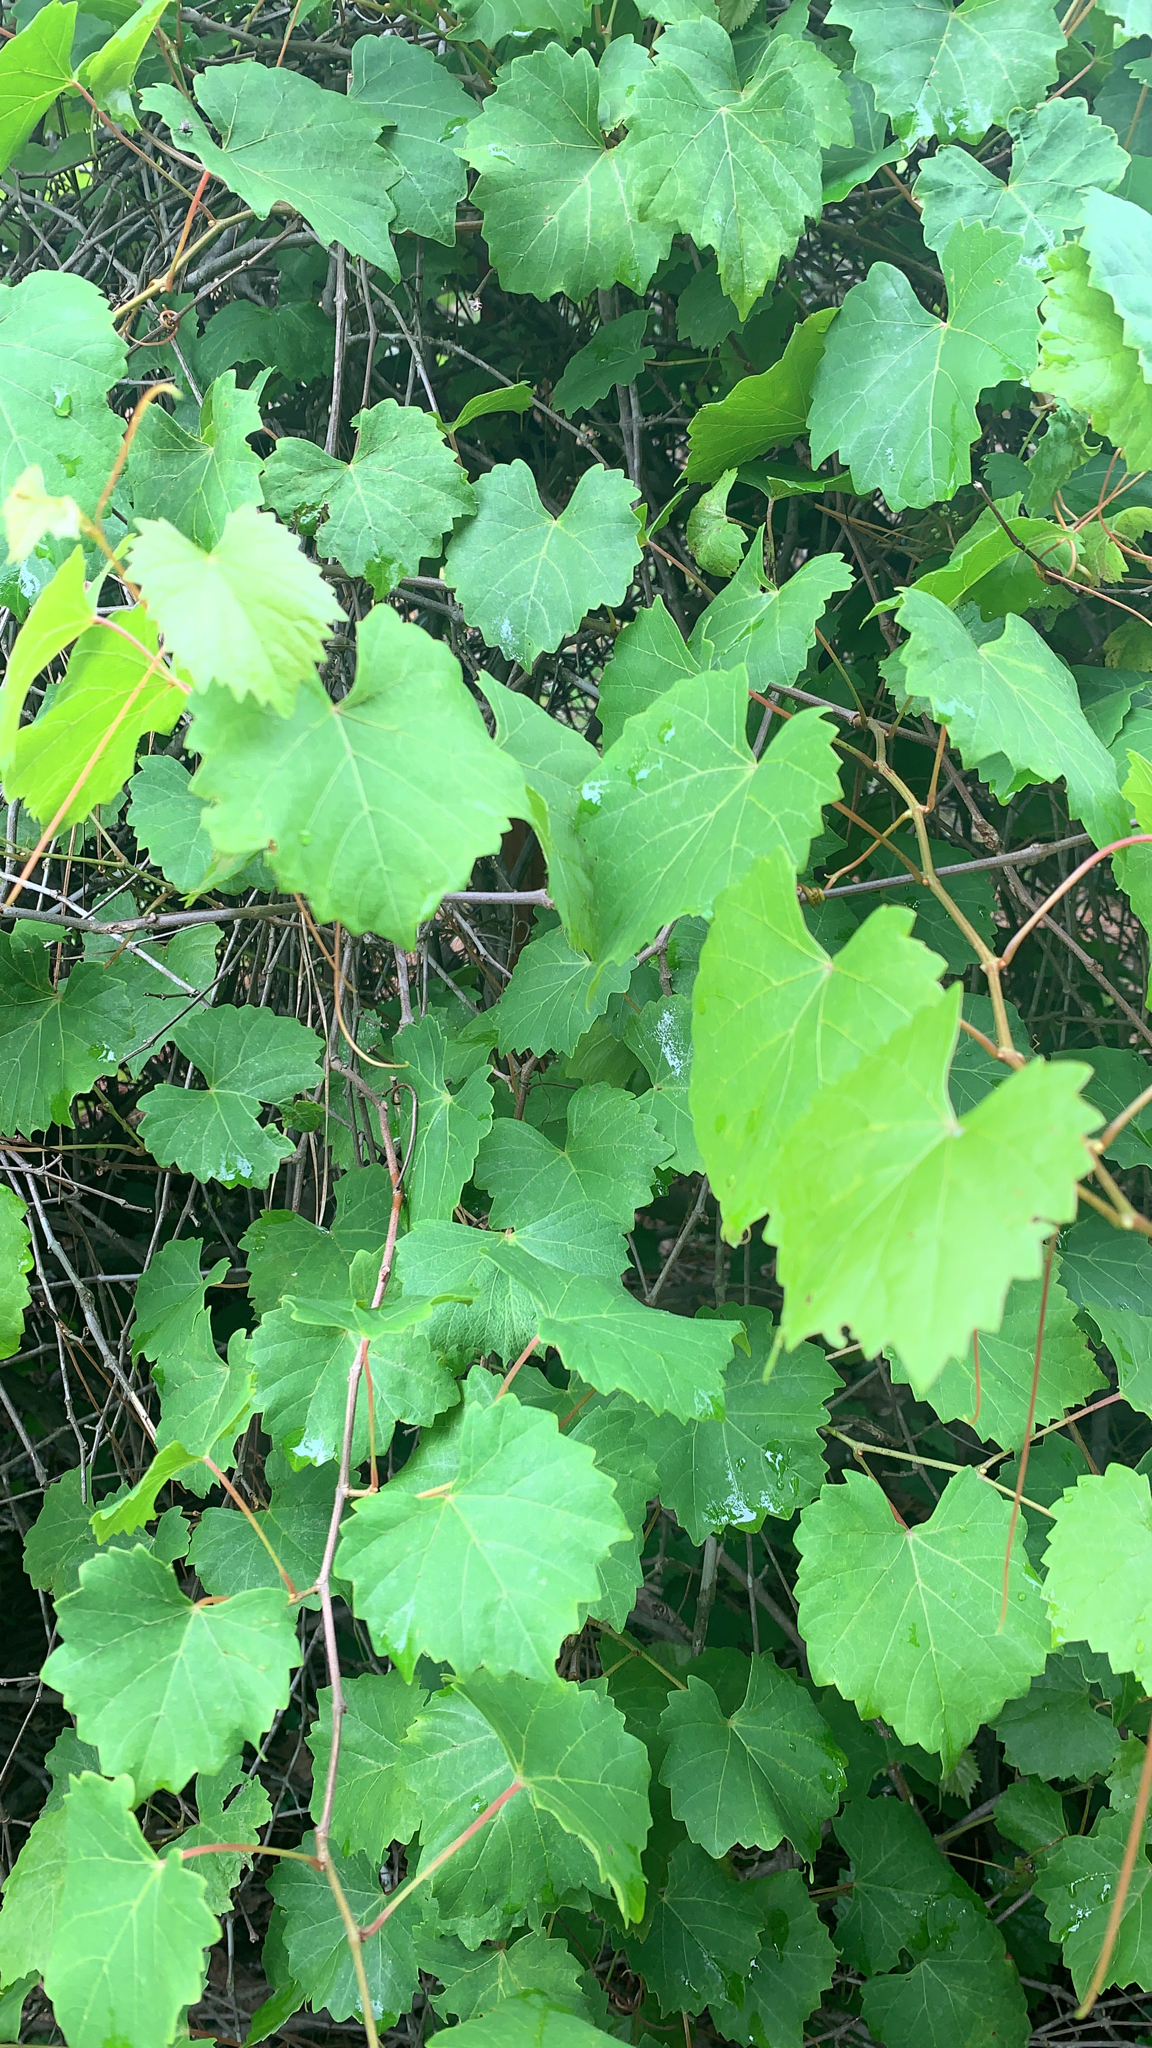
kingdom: Plantae
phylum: Tracheophyta
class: Magnoliopsida
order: Vitales
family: Vitaceae
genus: Vitis
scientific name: Vitis rotundifolia
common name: Muscadine grape
